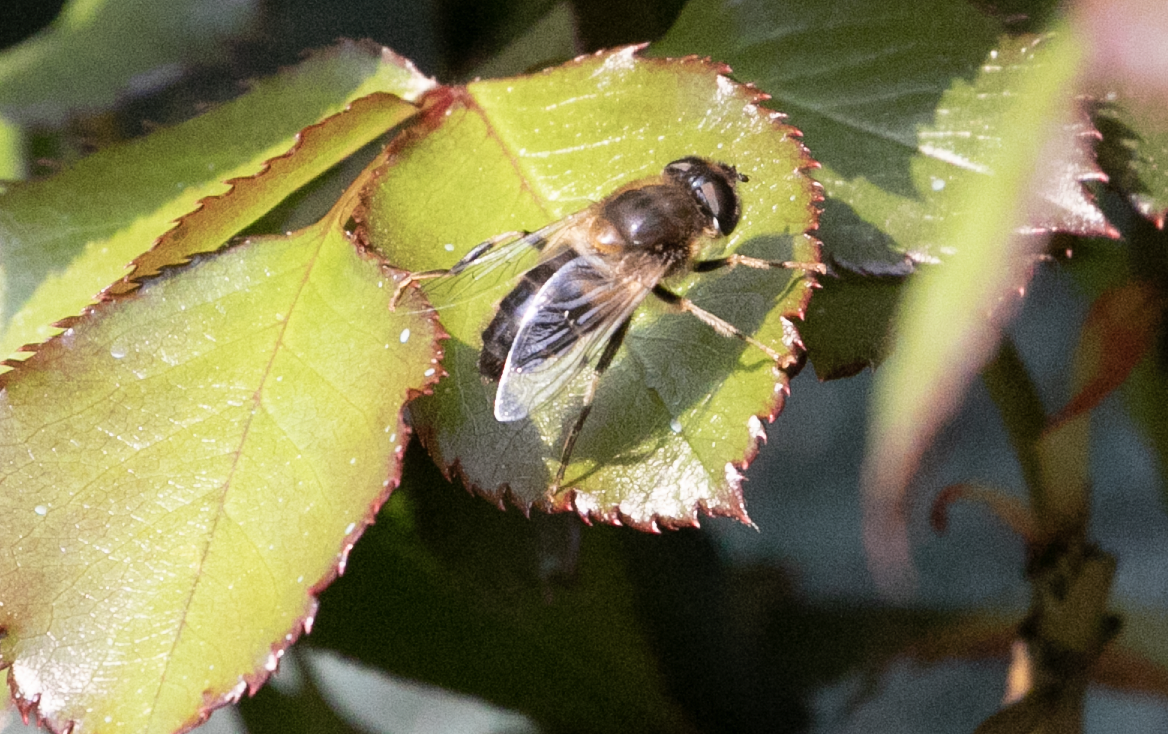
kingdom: Animalia
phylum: Arthropoda
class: Insecta
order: Diptera
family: Syrphidae
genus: Eristalis
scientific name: Eristalis pertinax
